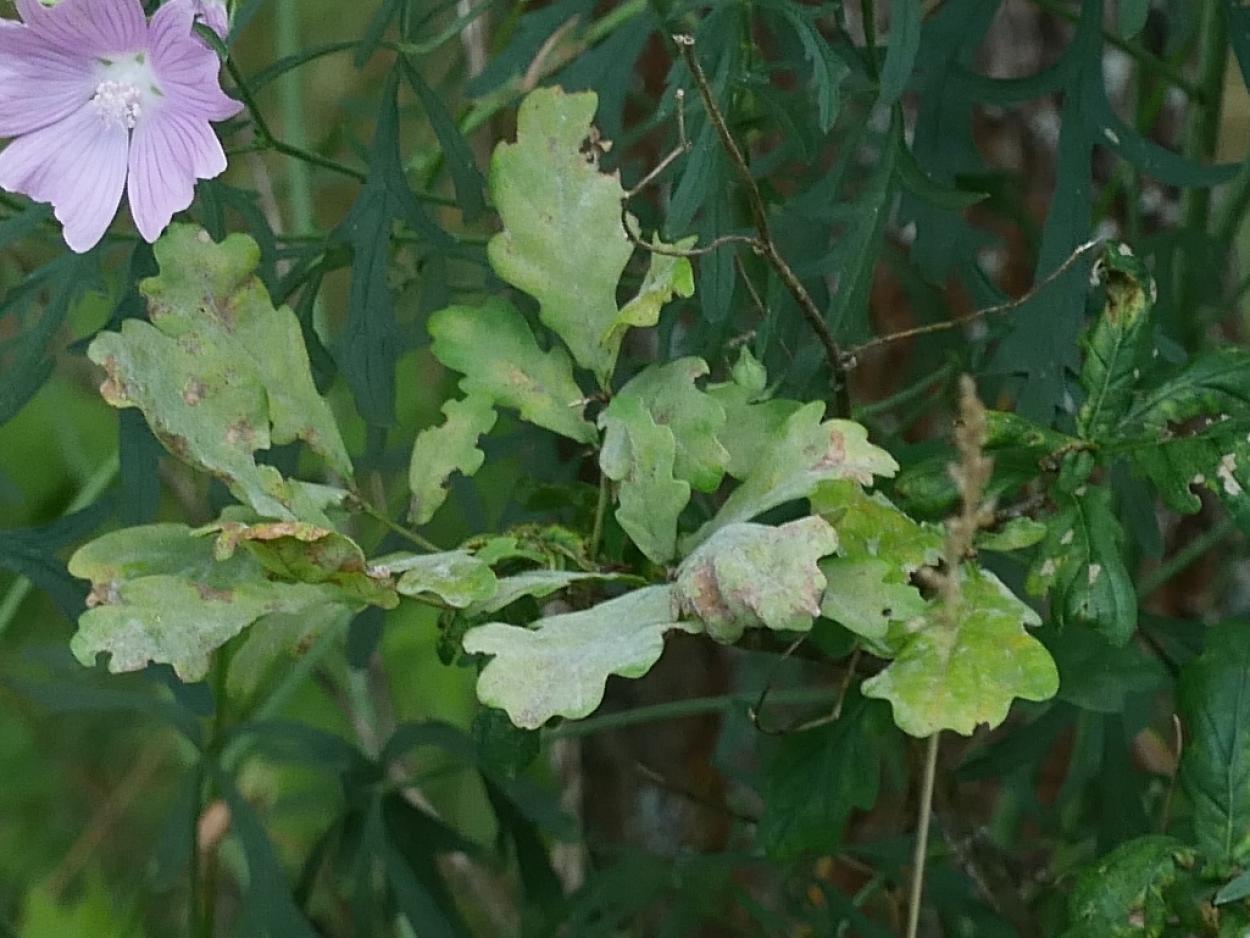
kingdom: Fungi
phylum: Ascomycota
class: Leotiomycetes
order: Helotiales
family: Erysiphaceae
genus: Erysiphe
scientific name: Erysiphe
